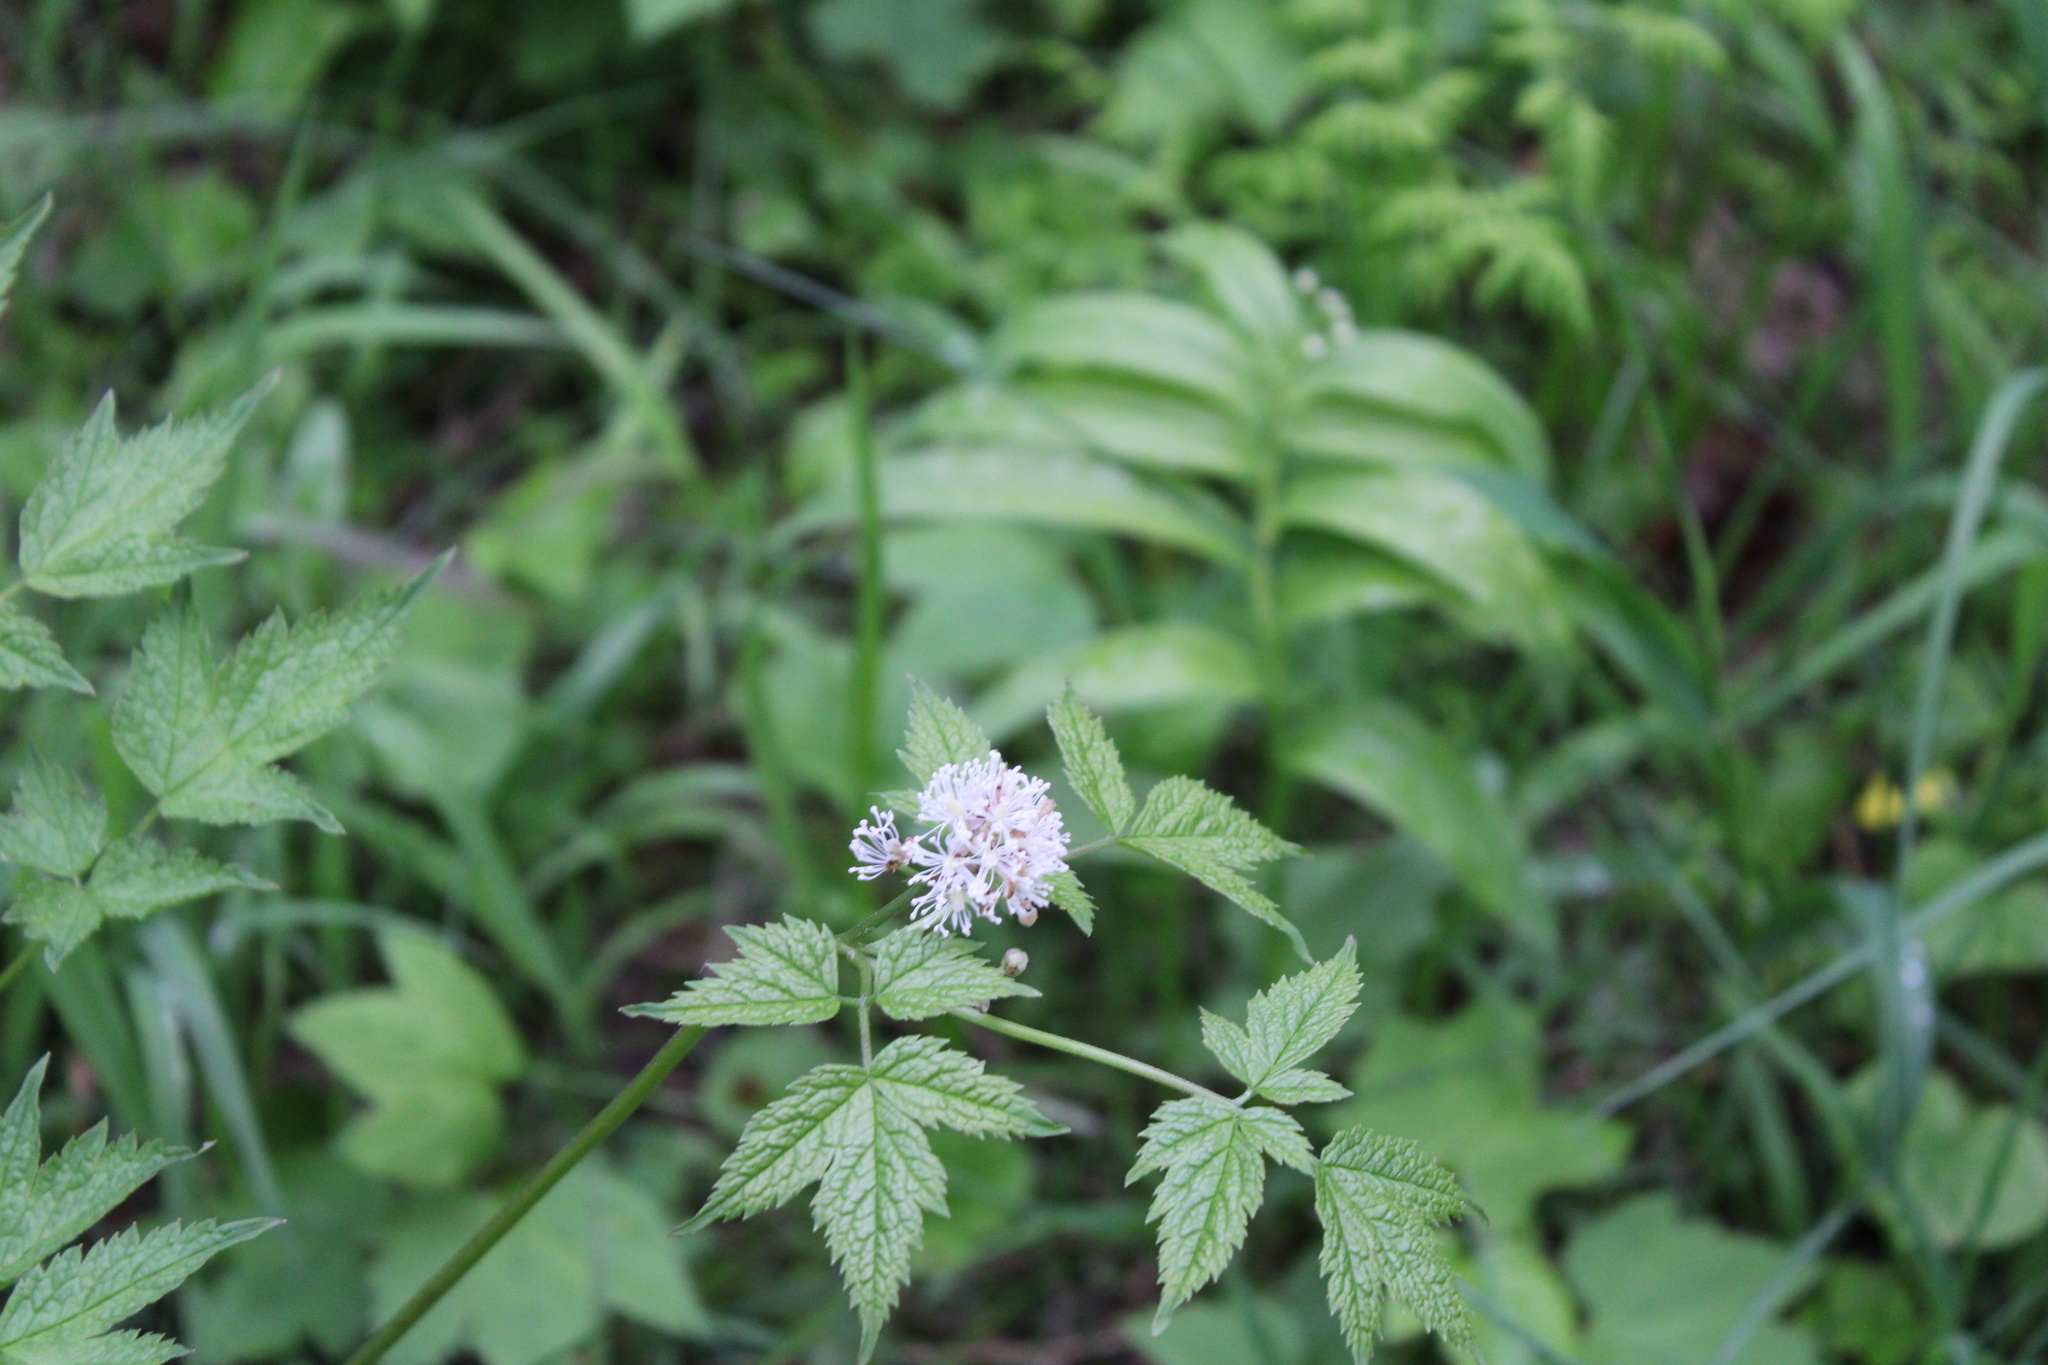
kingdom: Plantae
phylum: Tracheophyta
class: Magnoliopsida
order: Ranunculales
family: Ranunculaceae
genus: Actaea
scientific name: Actaea rubra
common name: Red baneberry
